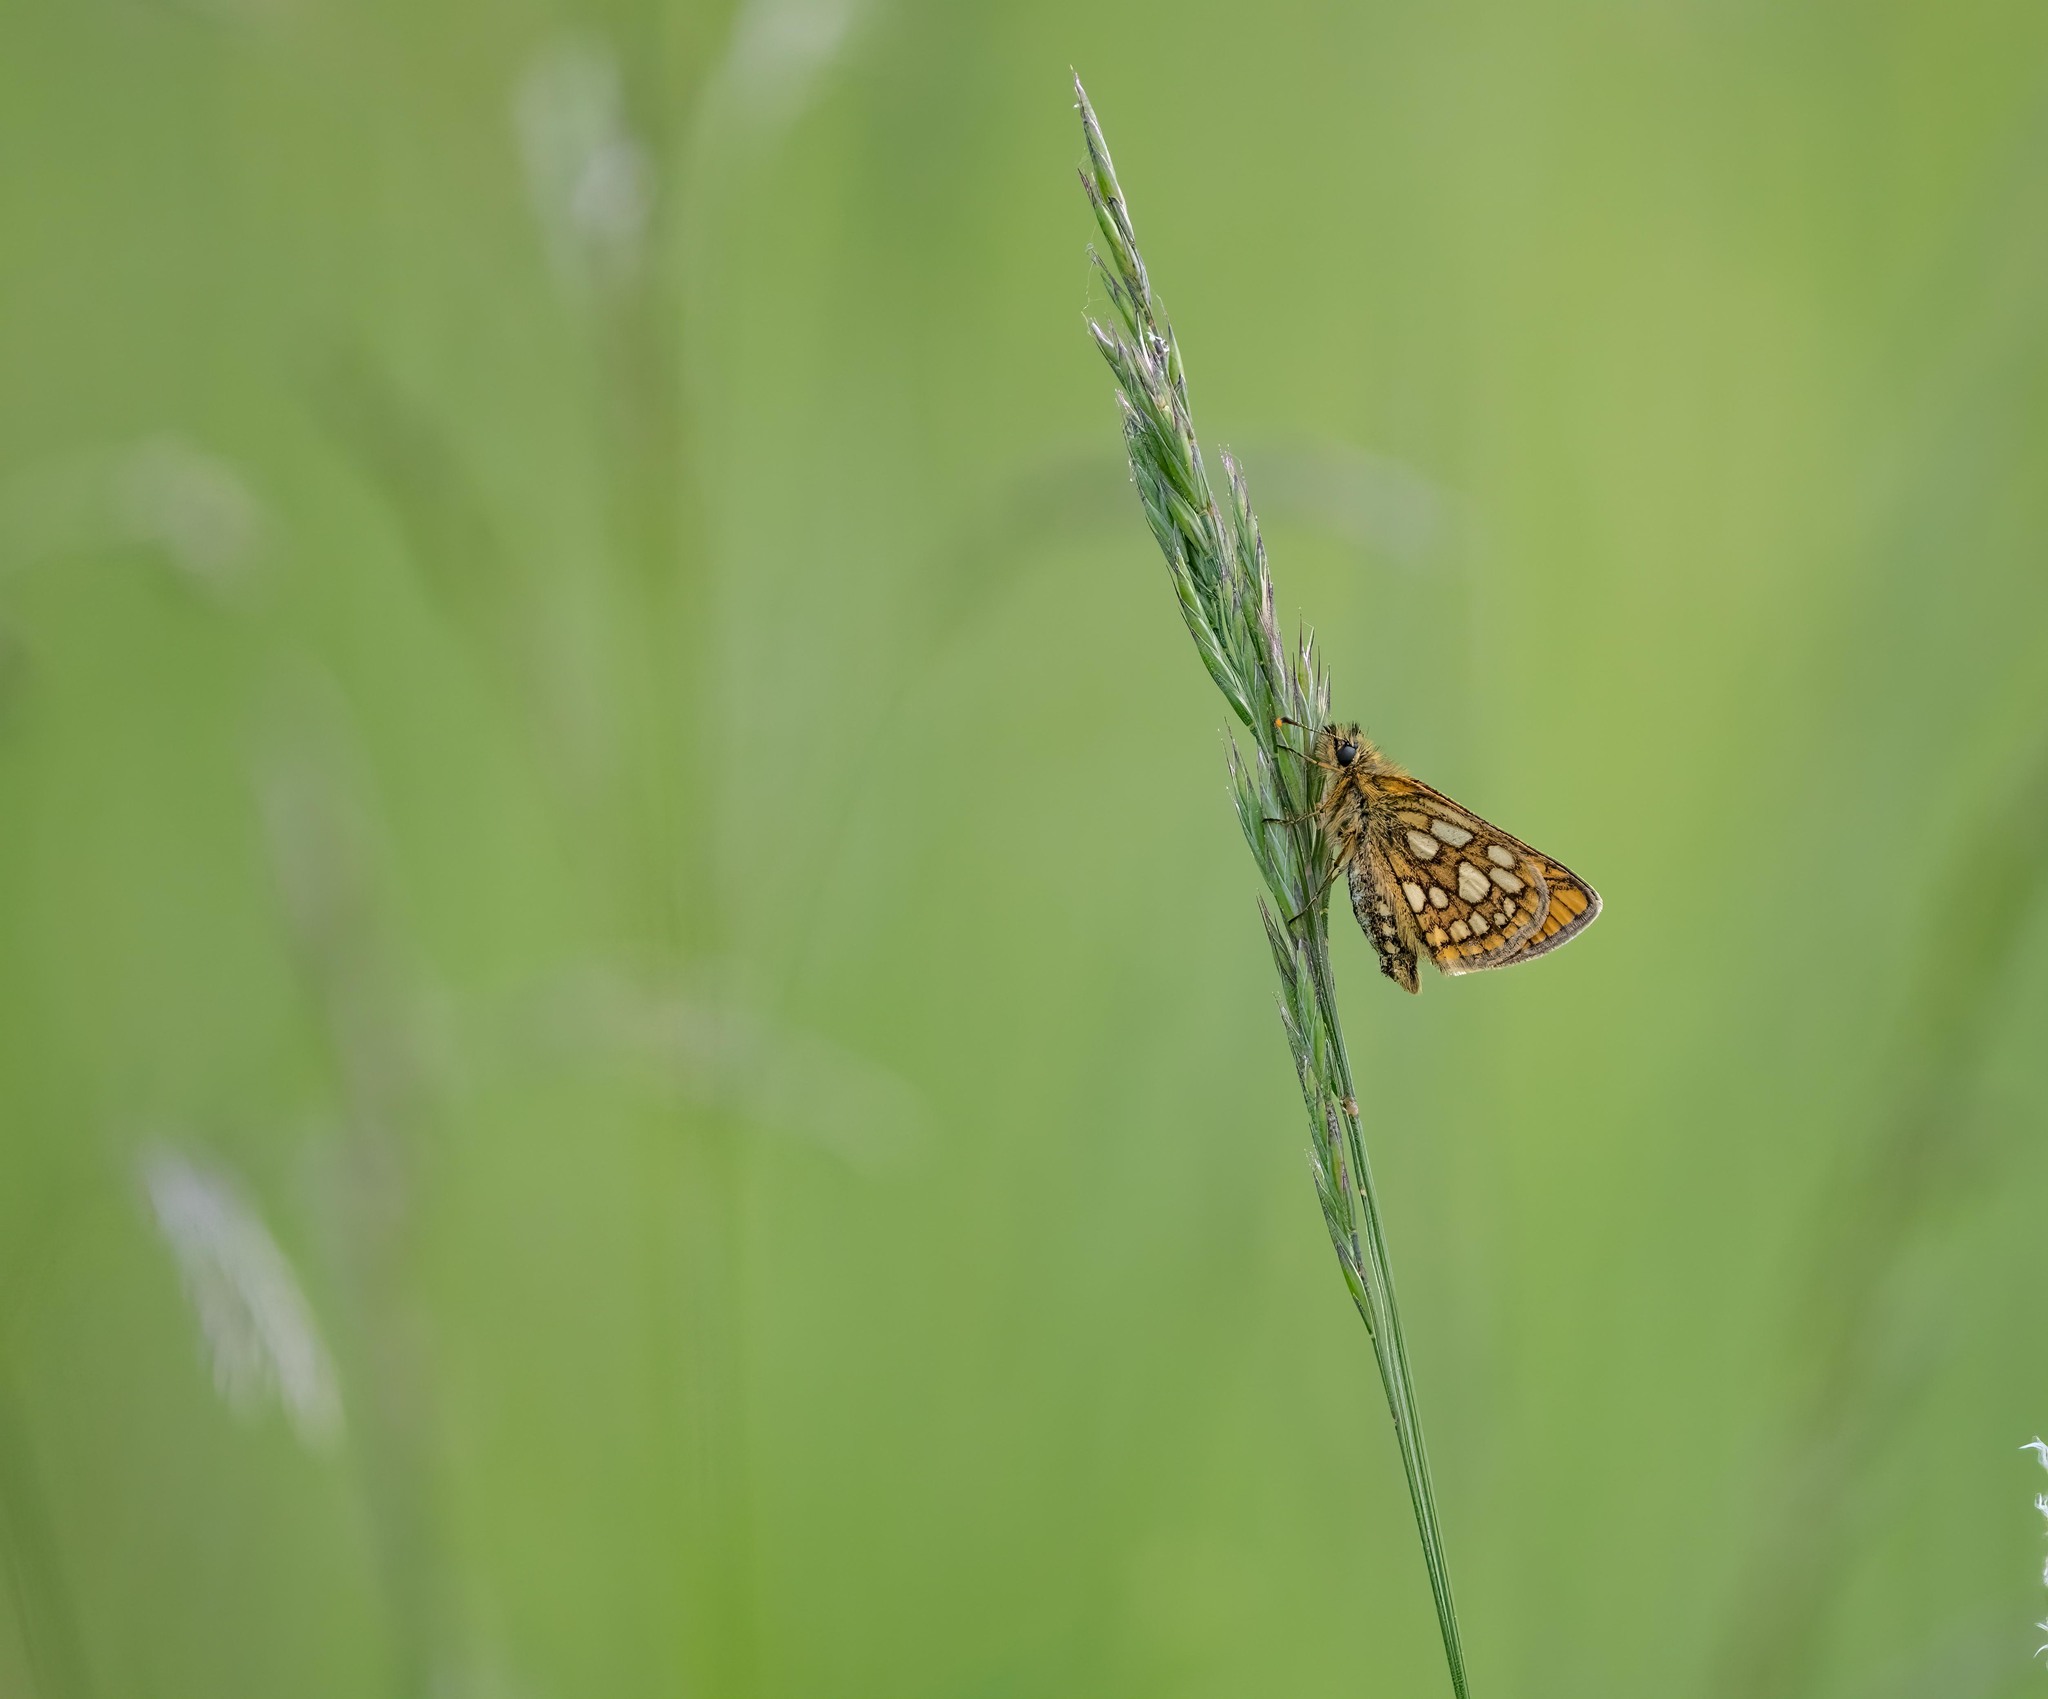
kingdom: Animalia
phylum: Arthropoda
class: Insecta
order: Lepidoptera
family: Hesperiidae
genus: Carterocephalus
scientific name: Carterocephalus palaemon
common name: Chequered skipper
